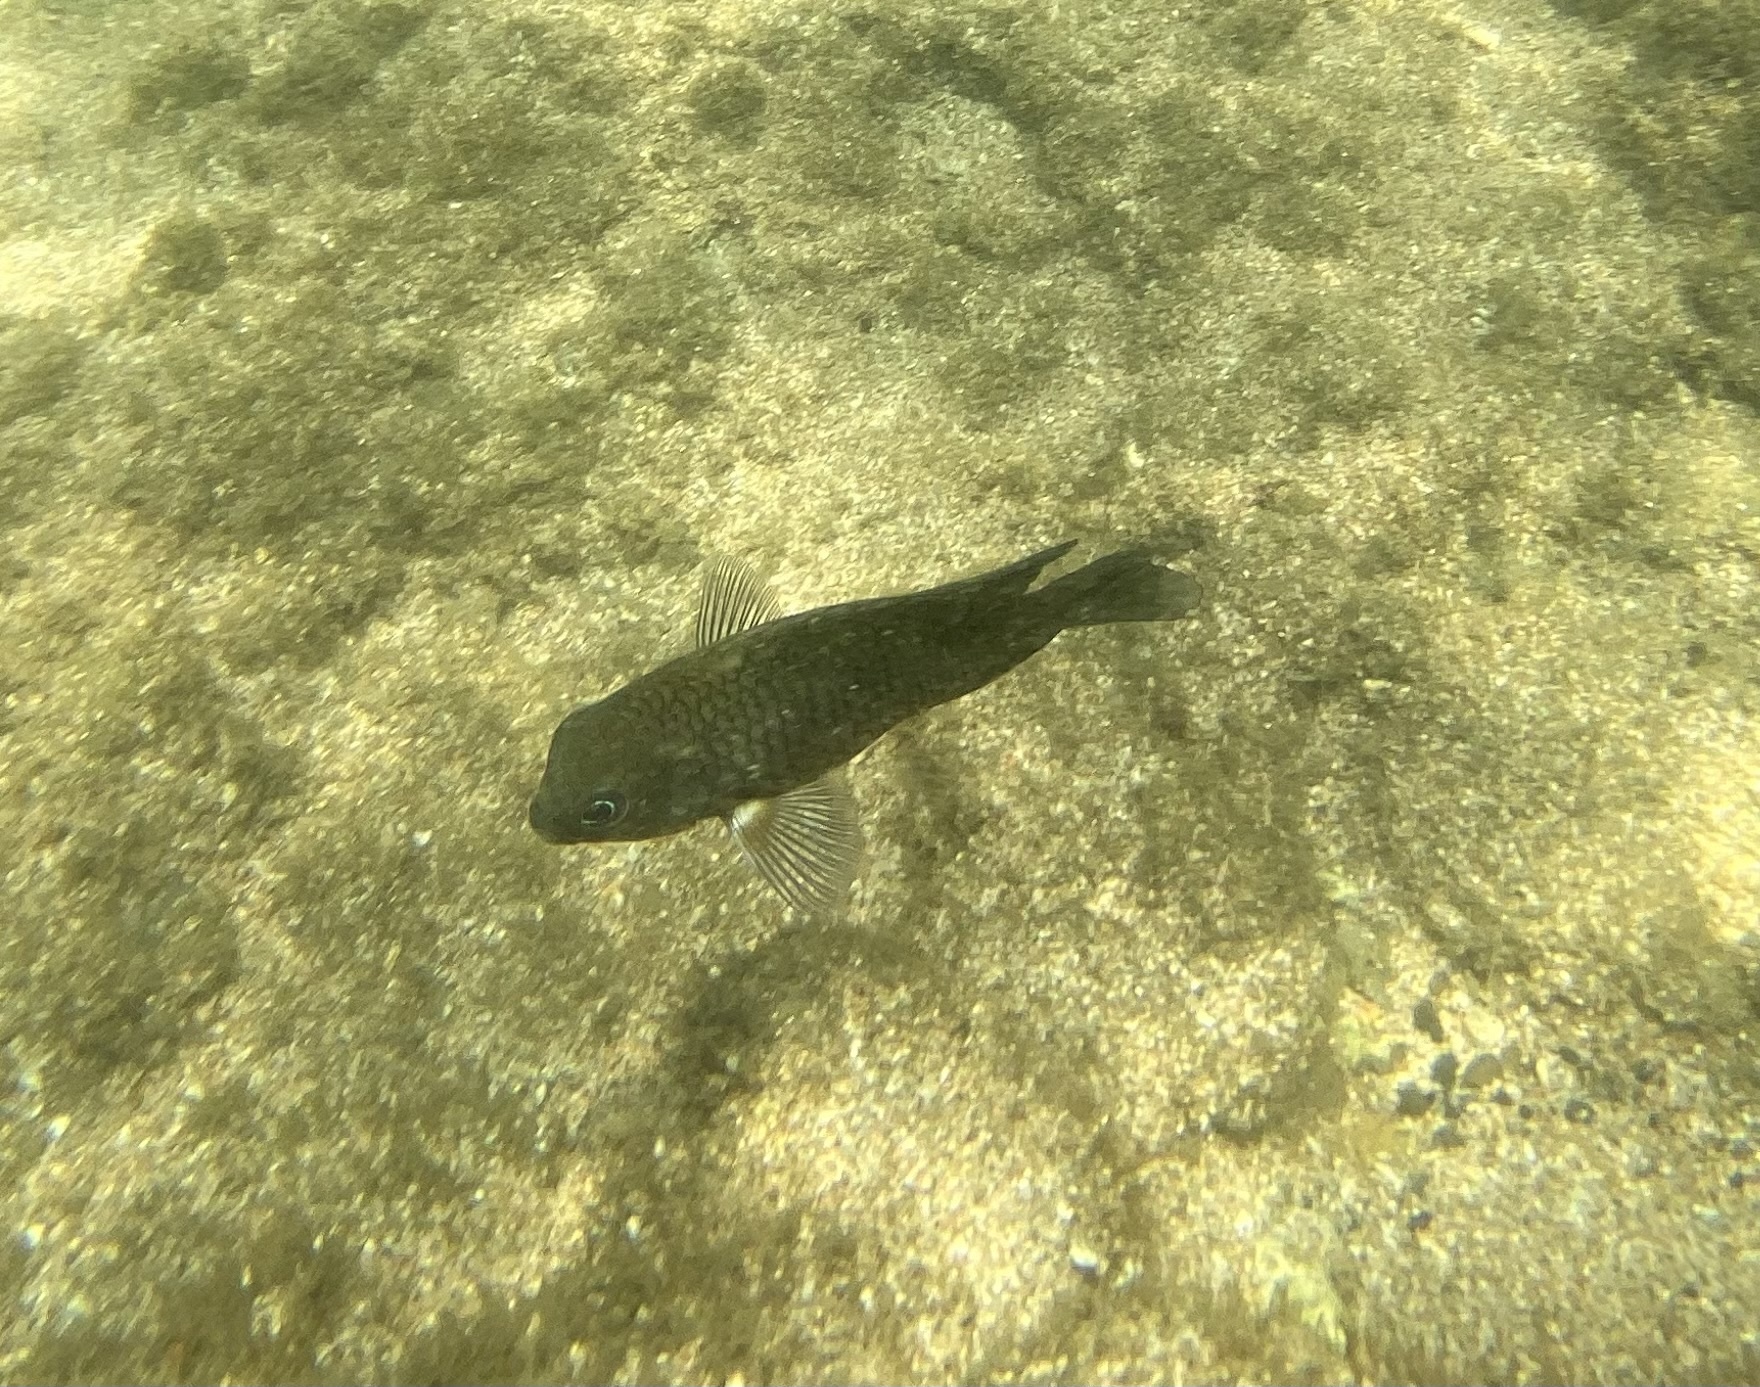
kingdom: Animalia
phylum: Chordata
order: Perciformes
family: Pomacentridae
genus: Stegastes
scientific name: Stegastes acapulcoensis
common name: Acapulco damselfish
